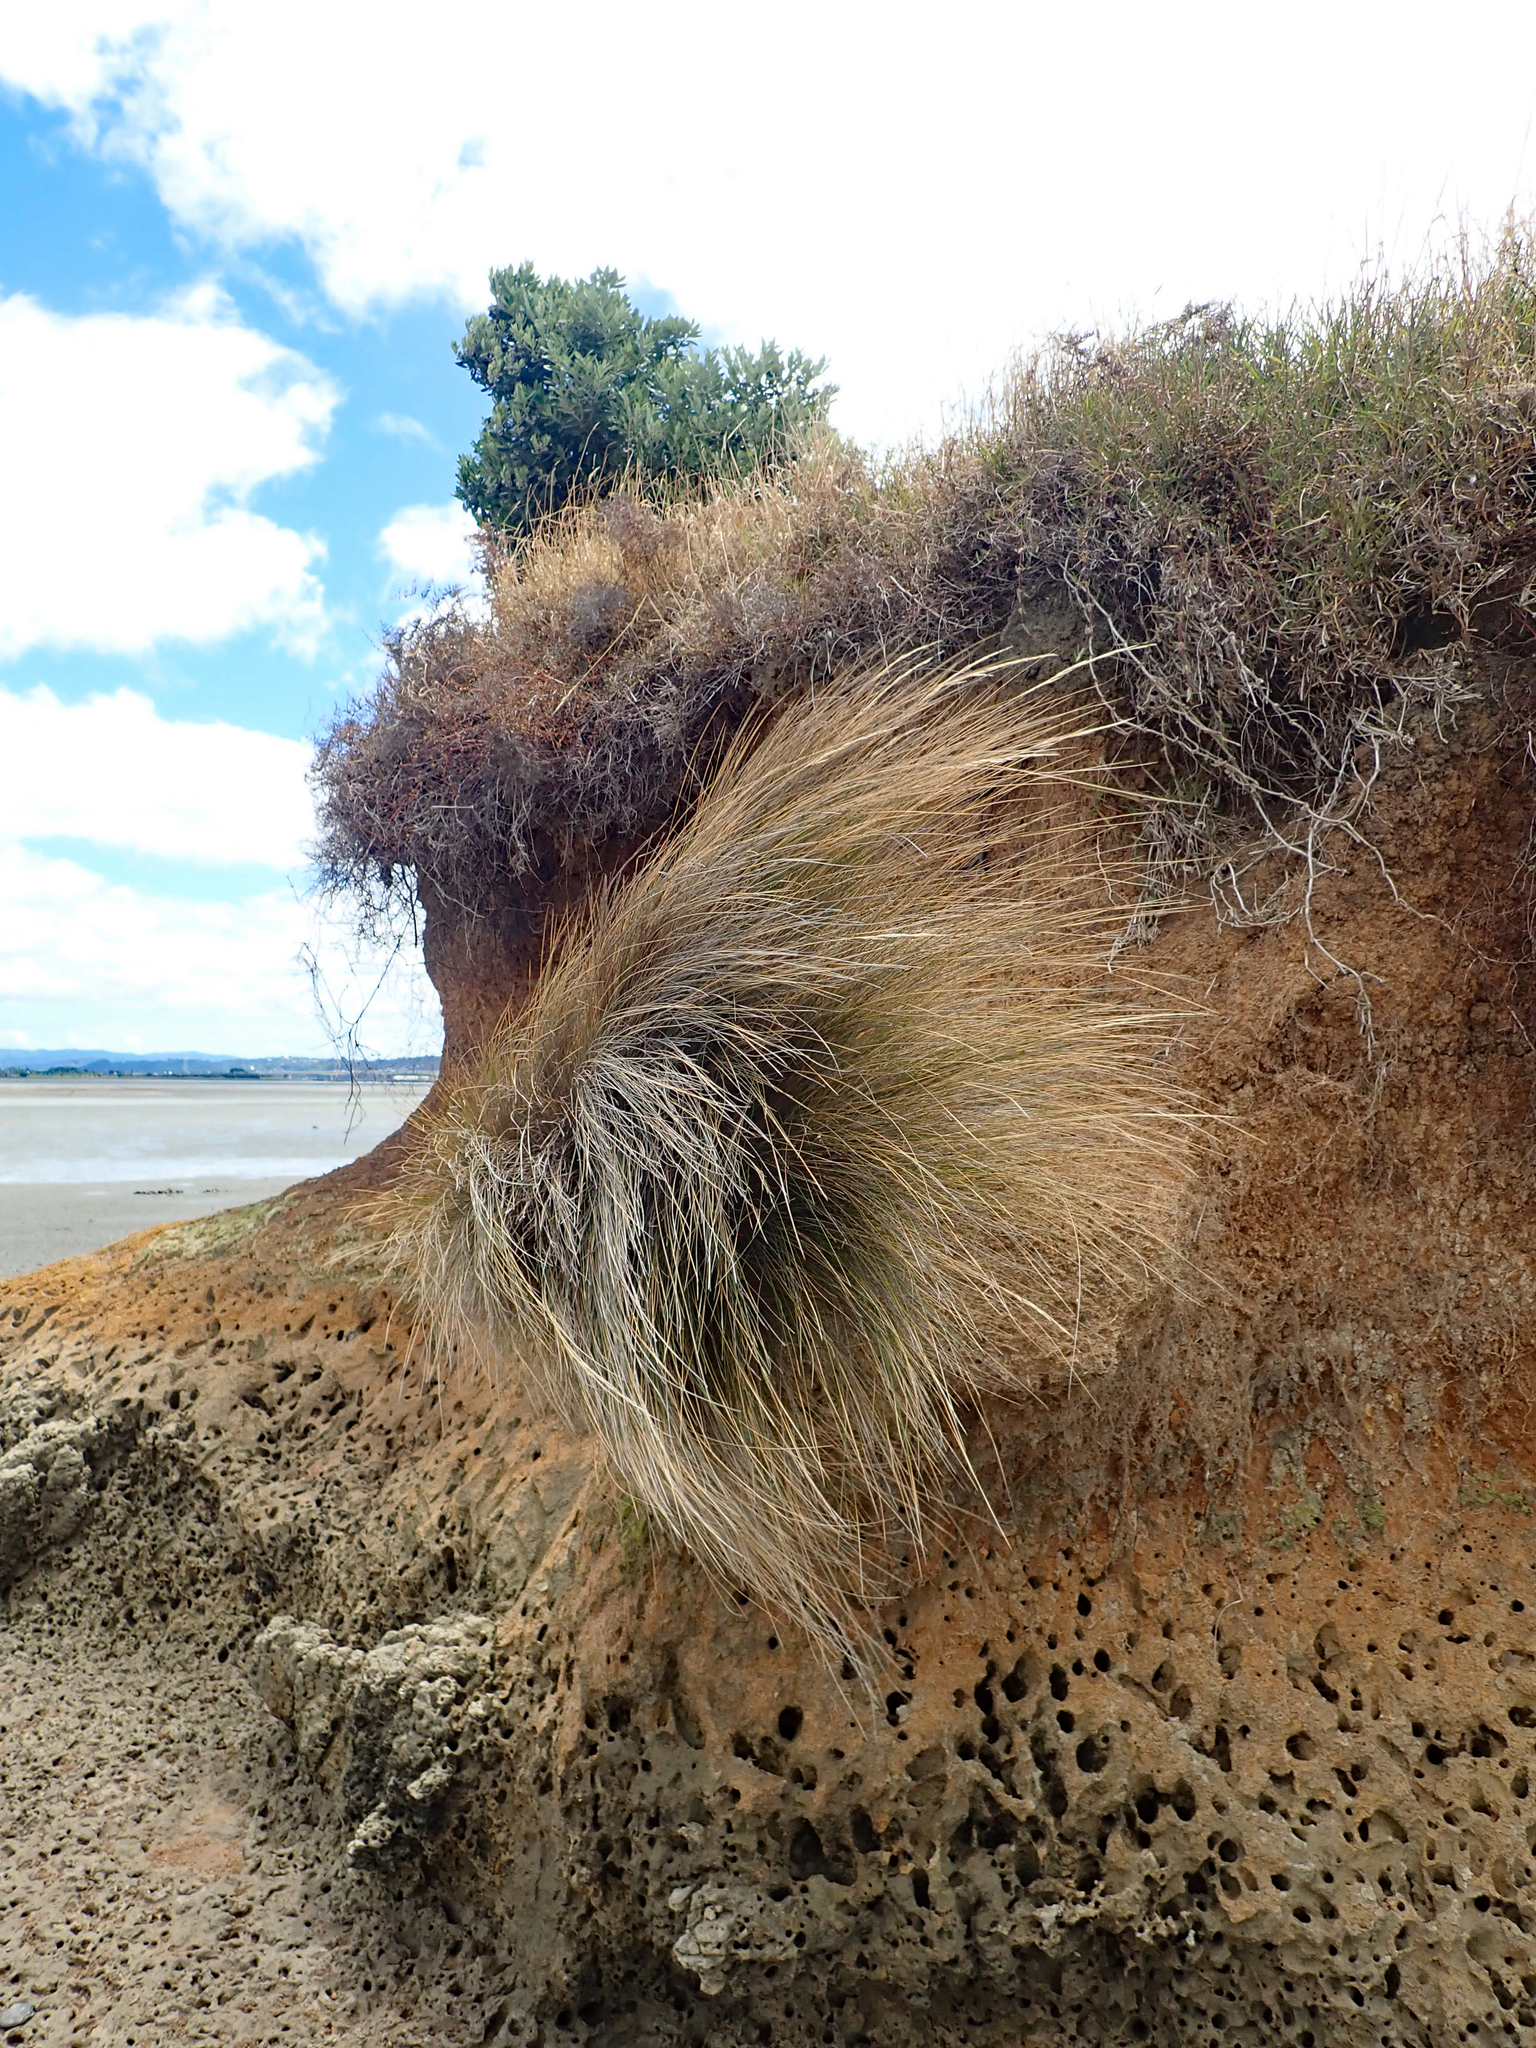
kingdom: Plantae
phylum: Tracheophyta
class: Liliopsida
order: Poales
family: Poaceae
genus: Austrostipa
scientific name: Austrostipa stipoides
